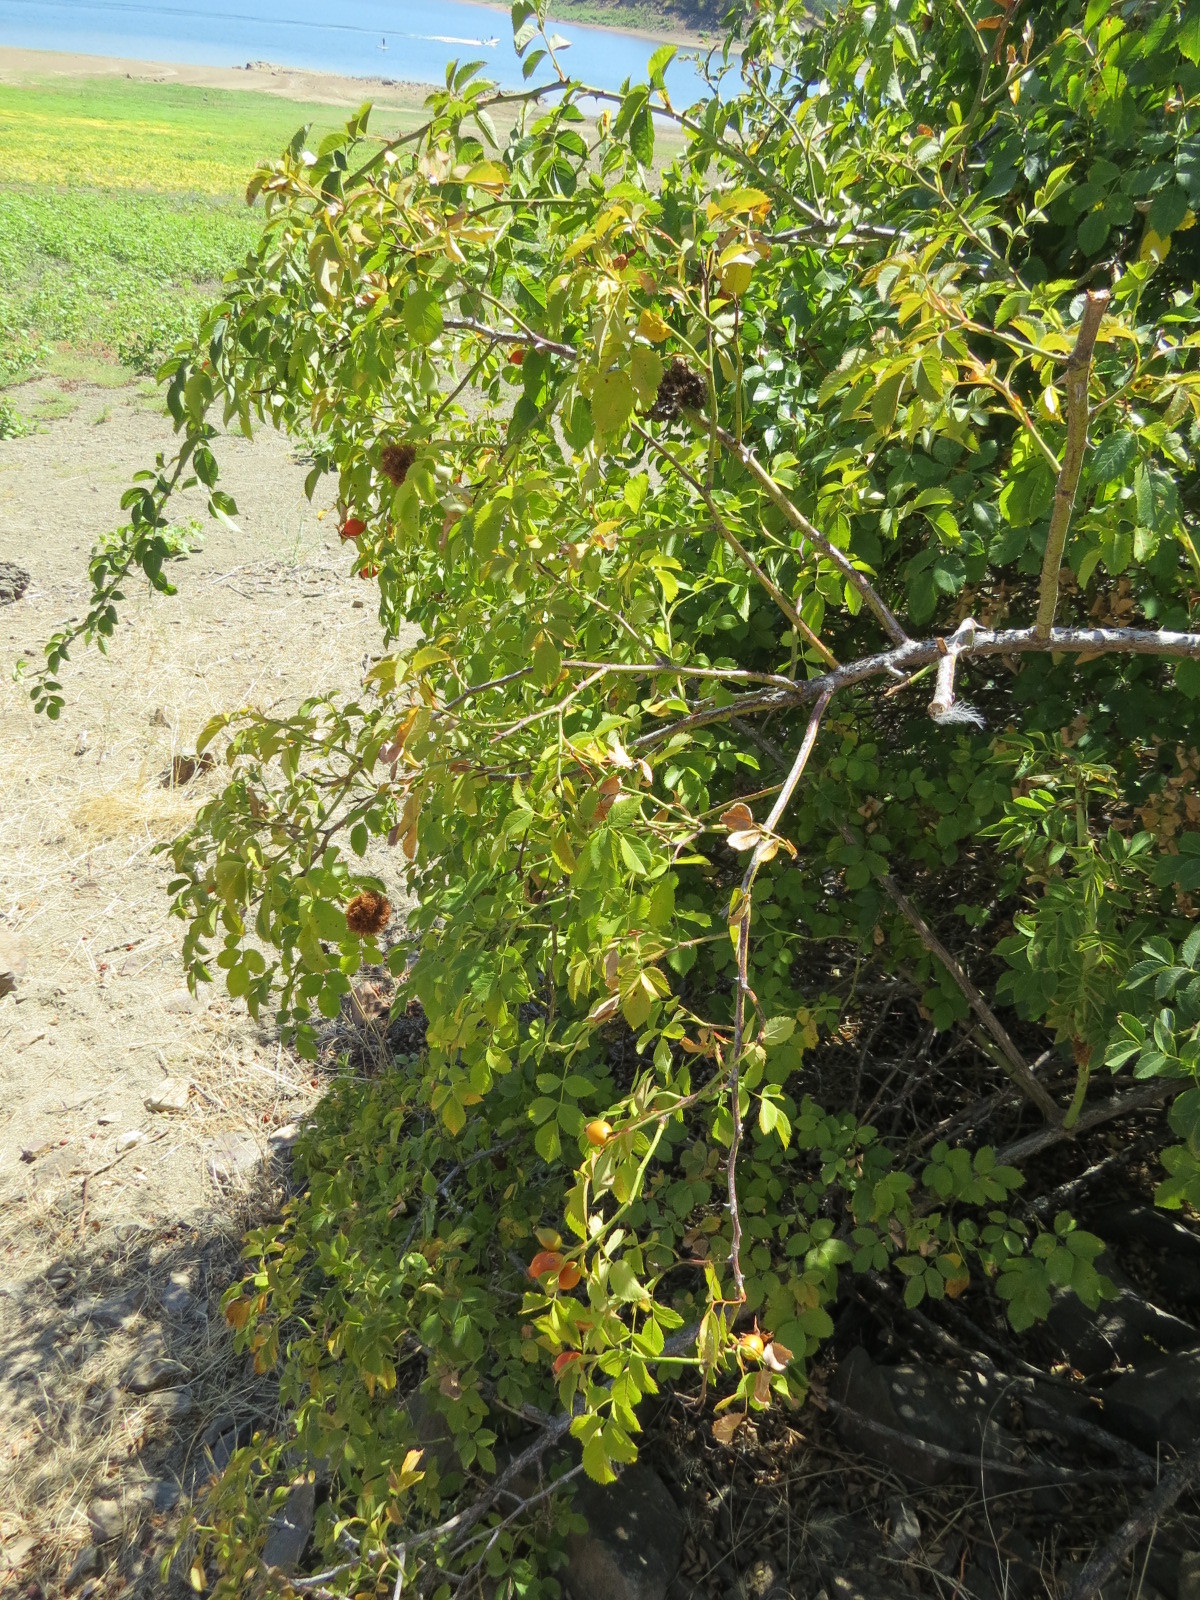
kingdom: Animalia
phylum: Arthropoda
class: Insecta
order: Hymenoptera
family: Cynipidae
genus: Diplolepis
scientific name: Diplolepis rosae
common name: Bedeguar gall
